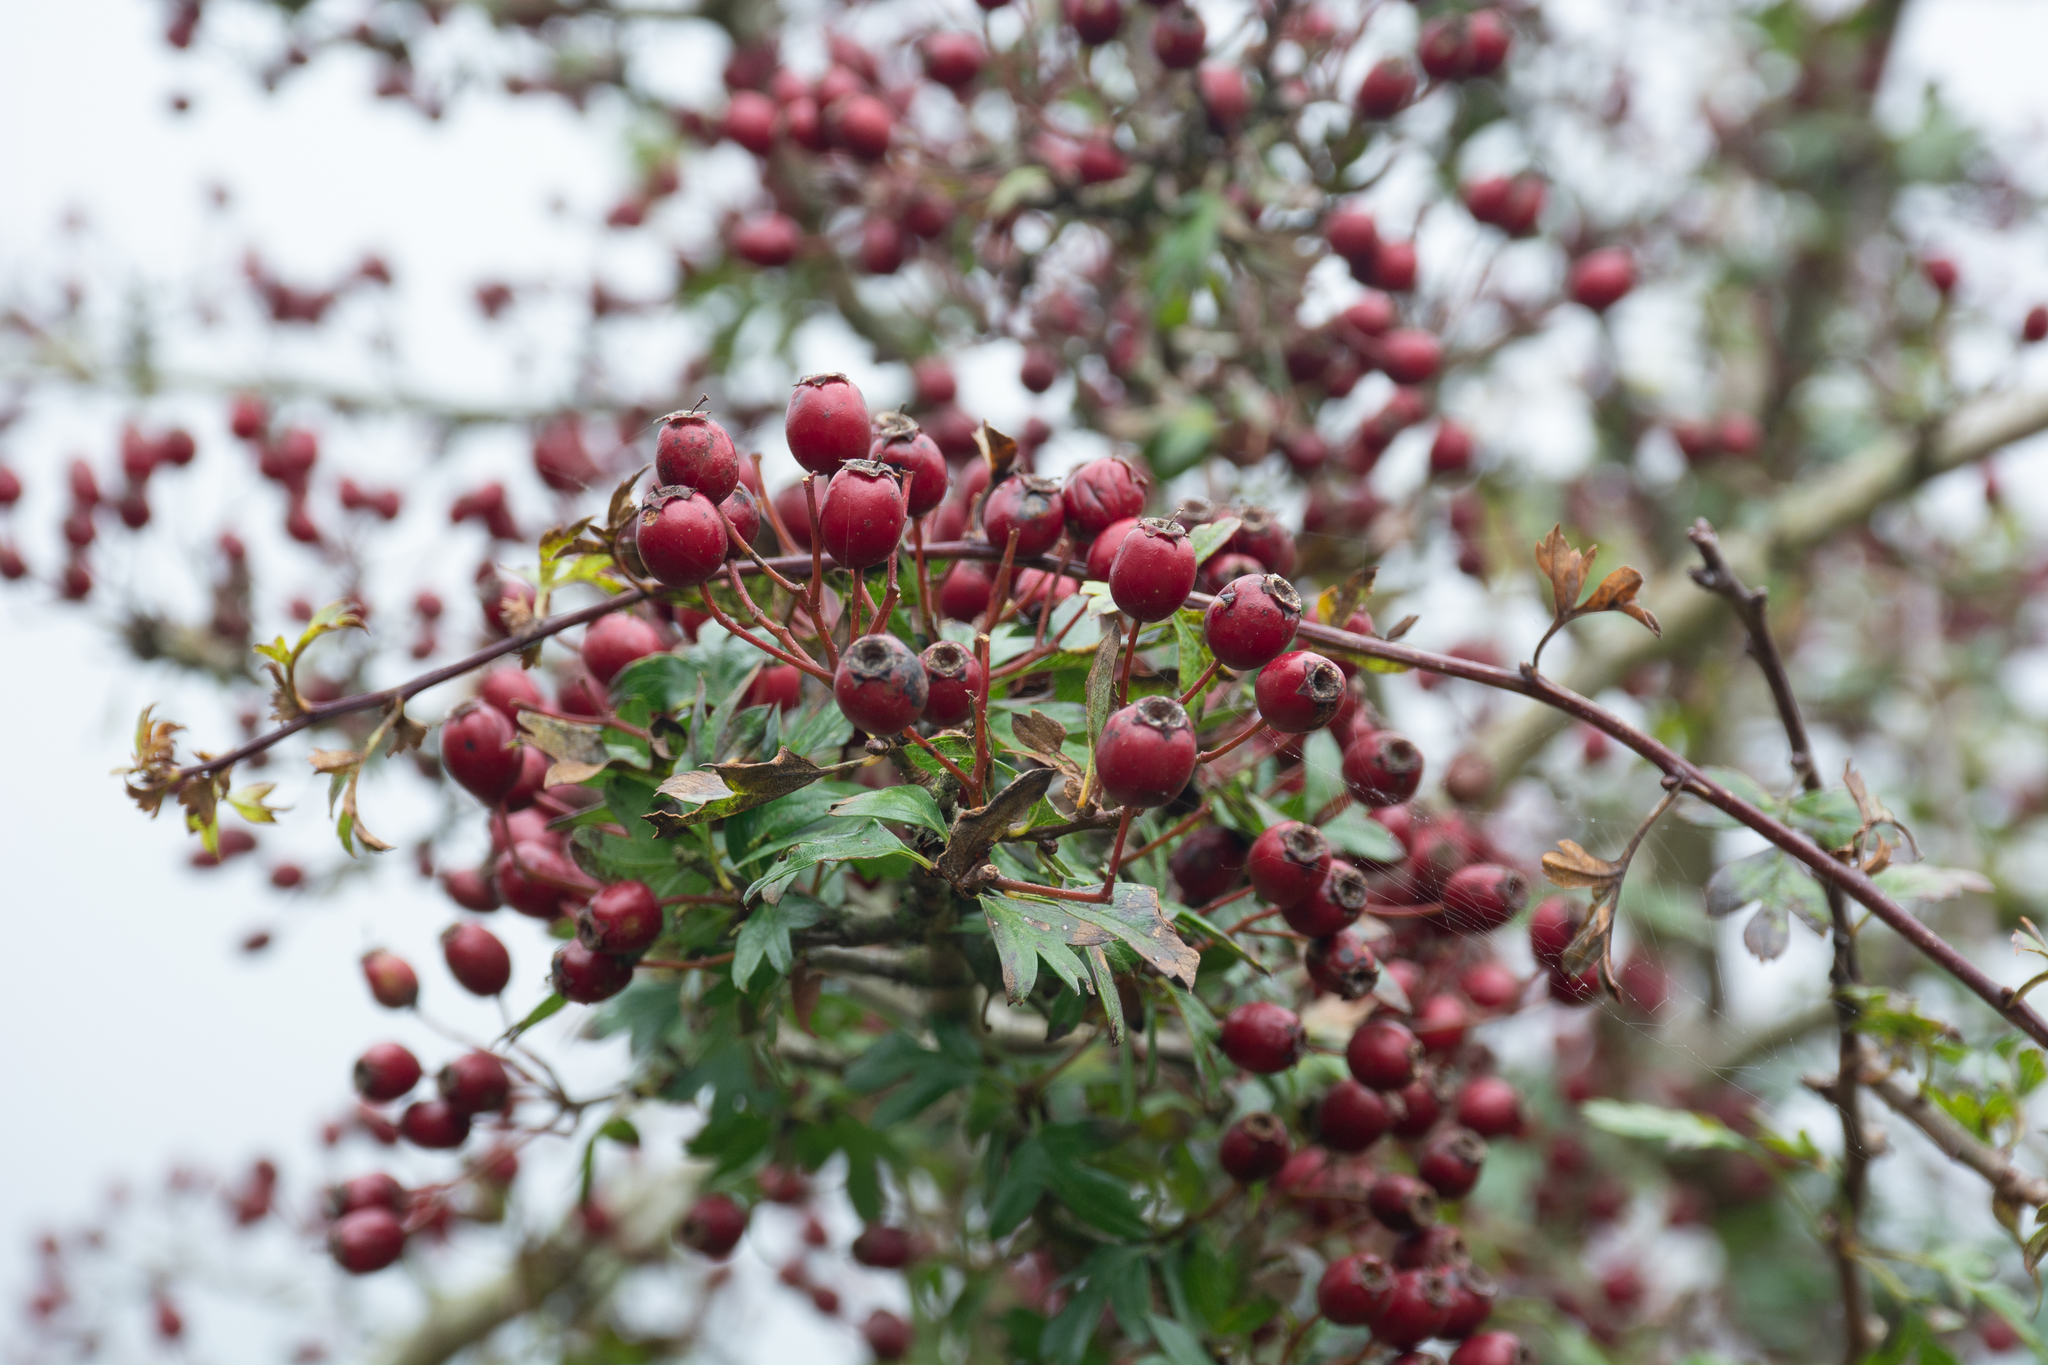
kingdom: Plantae
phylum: Tracheophyta
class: Magnoliopsida
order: Rosales
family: Rosaceae
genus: Crataegus
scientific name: Crataegus monogyna
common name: Hawthorn
